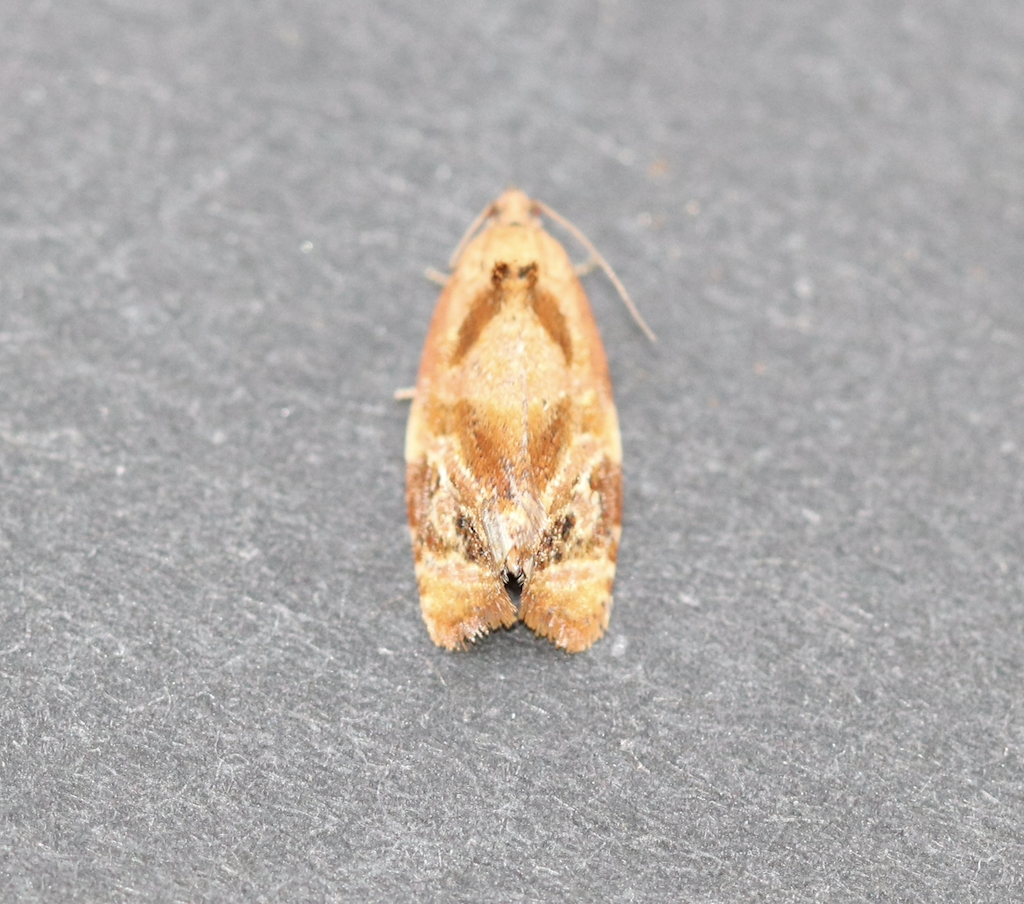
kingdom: Animalia
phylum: Arthropoda
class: Insecta
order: Lepidoptera
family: Tortricidae
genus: Ditula
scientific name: Ditula angustiorana
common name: Red-barred tortrix
